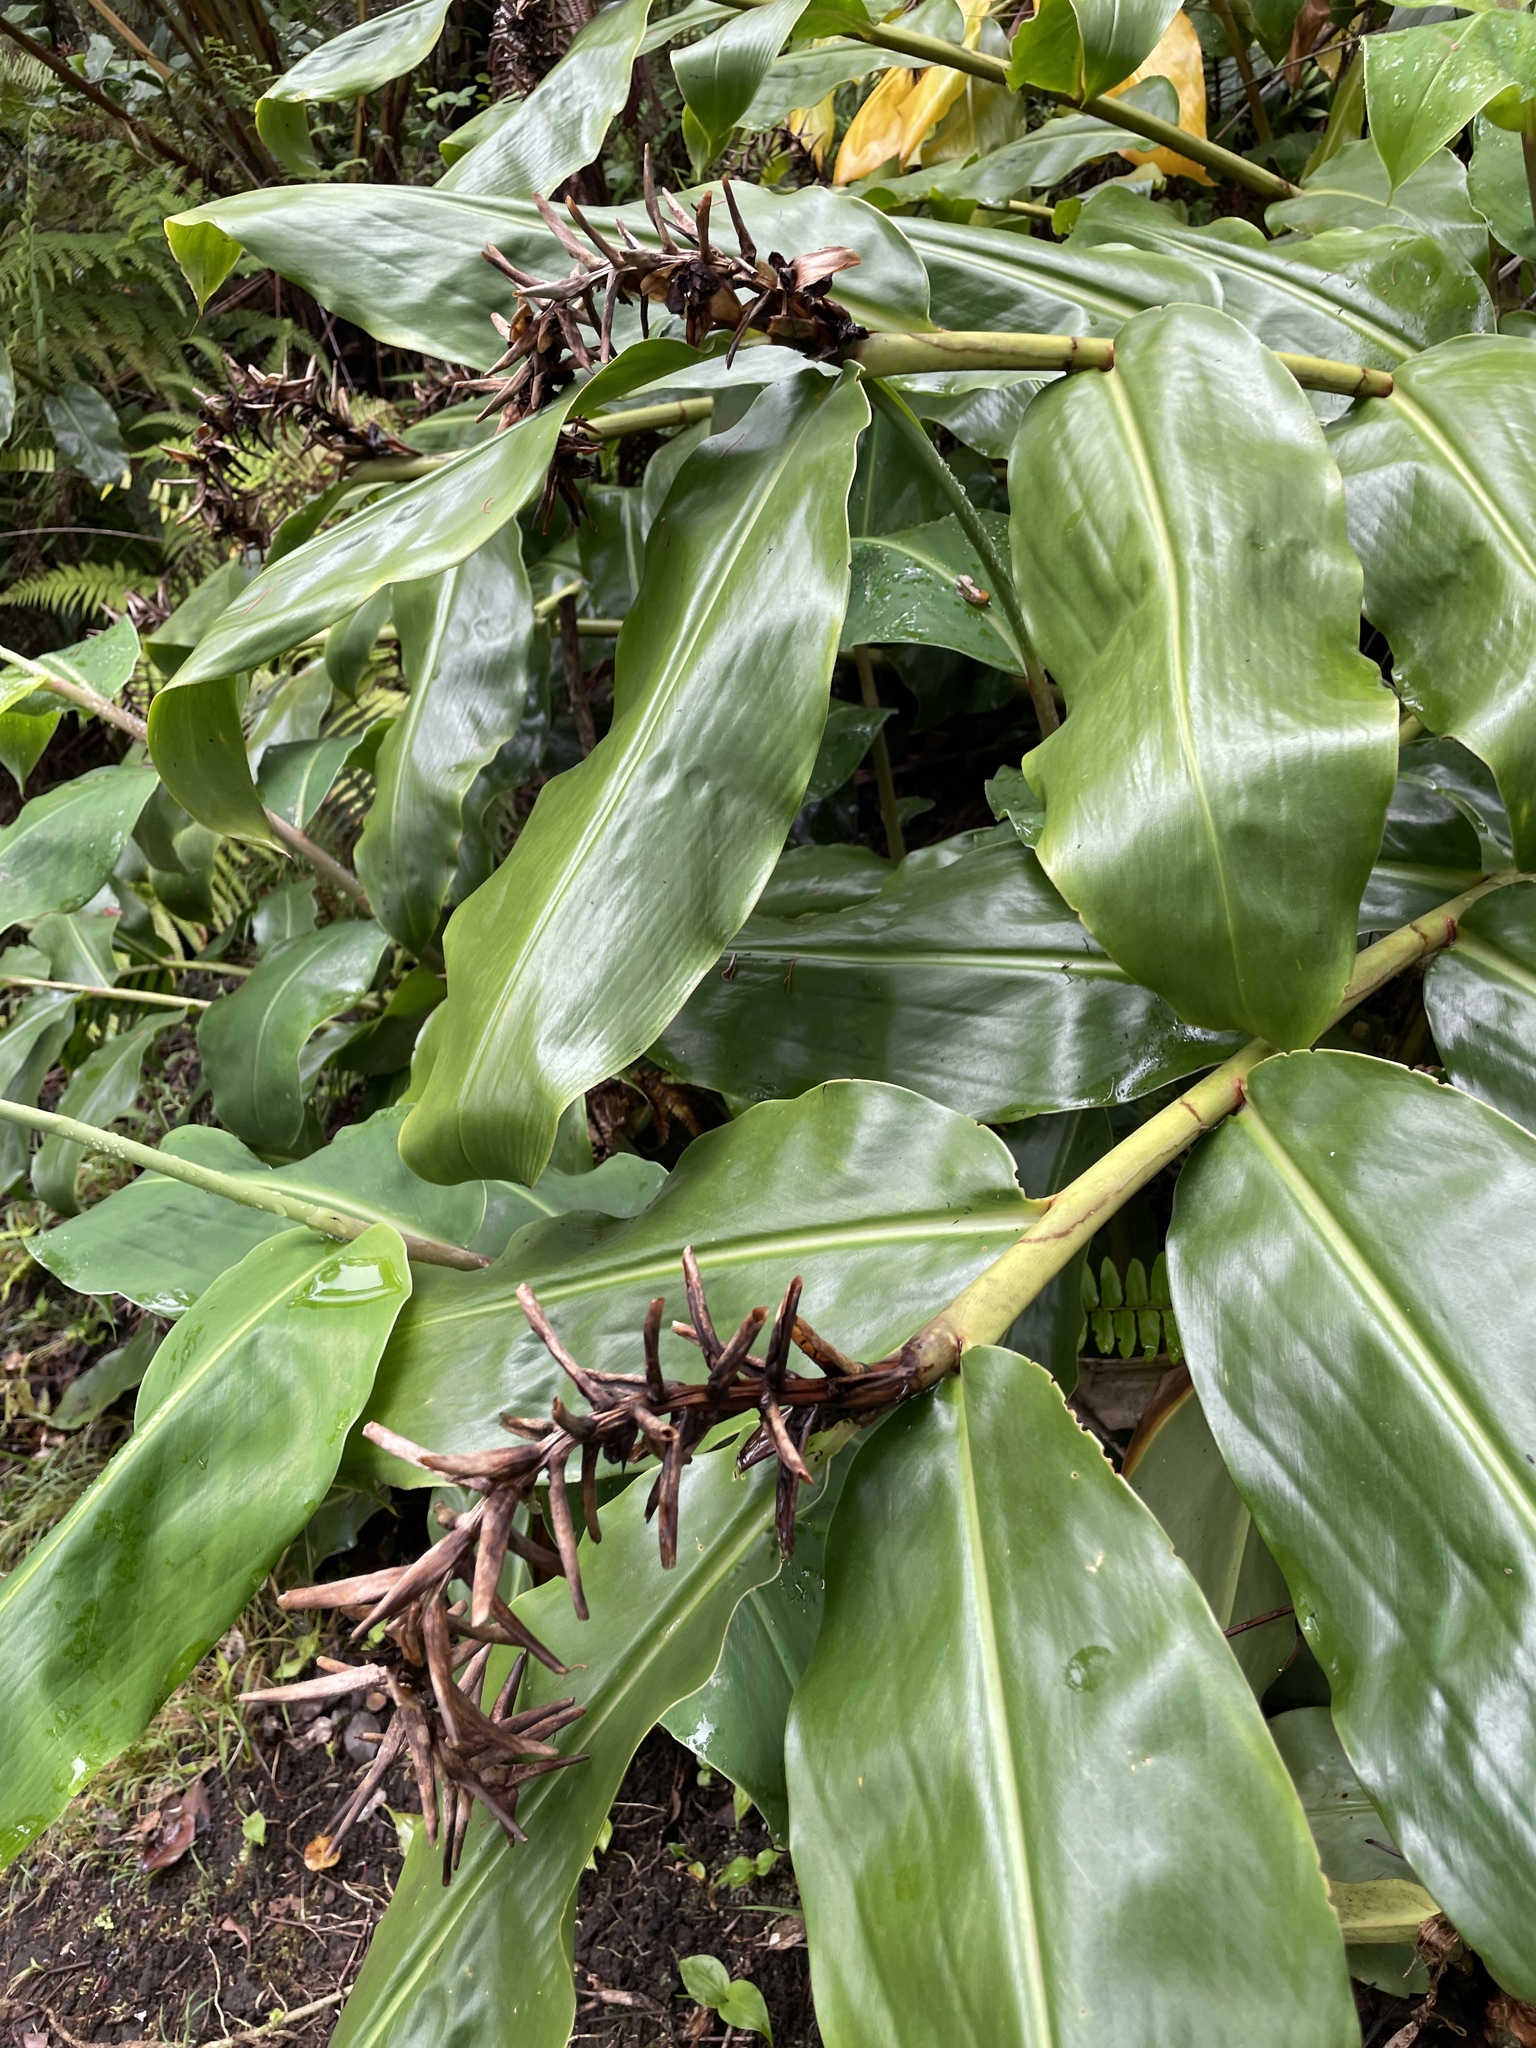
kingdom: Plantae
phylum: Tracheophyta
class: Liliopsida
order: Zingiberales
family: Zingiberaceae
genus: Hedychium
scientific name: Hedychium gardnerianum
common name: Himalayan ginger
